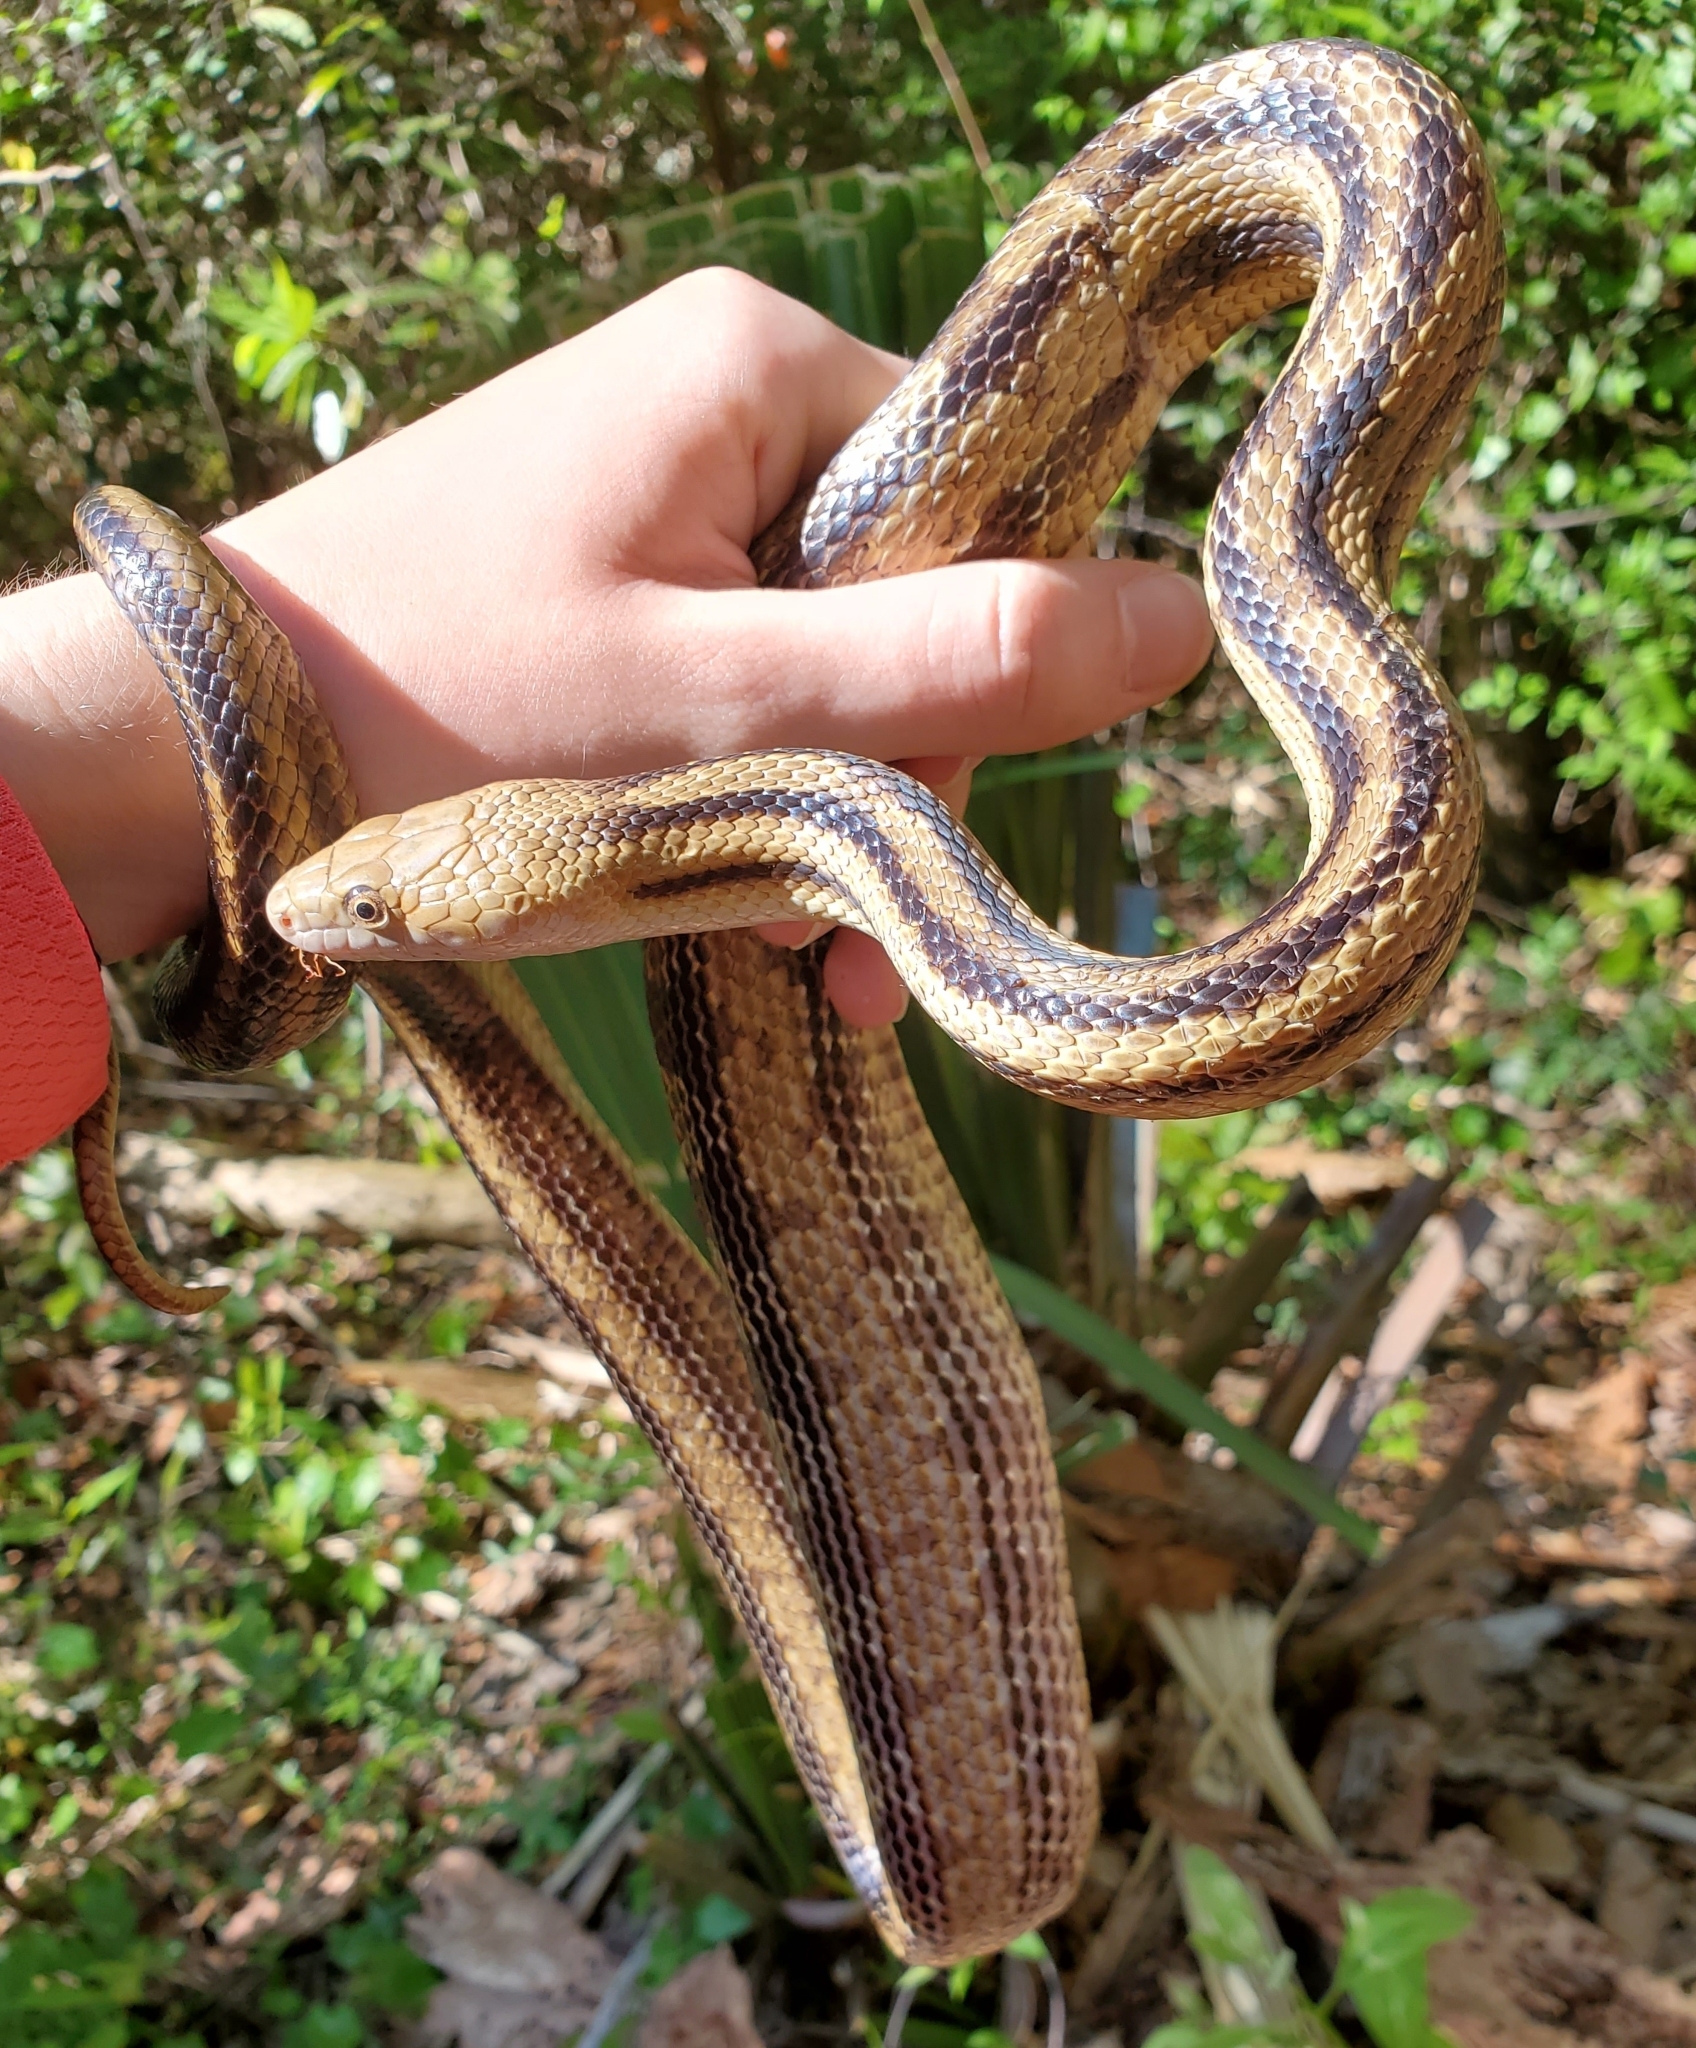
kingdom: Animalia
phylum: Chordata
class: Squamata
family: Colubridae
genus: Pantherophis
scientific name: Pantherophis alleghaniensis
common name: Eastern rat snake
